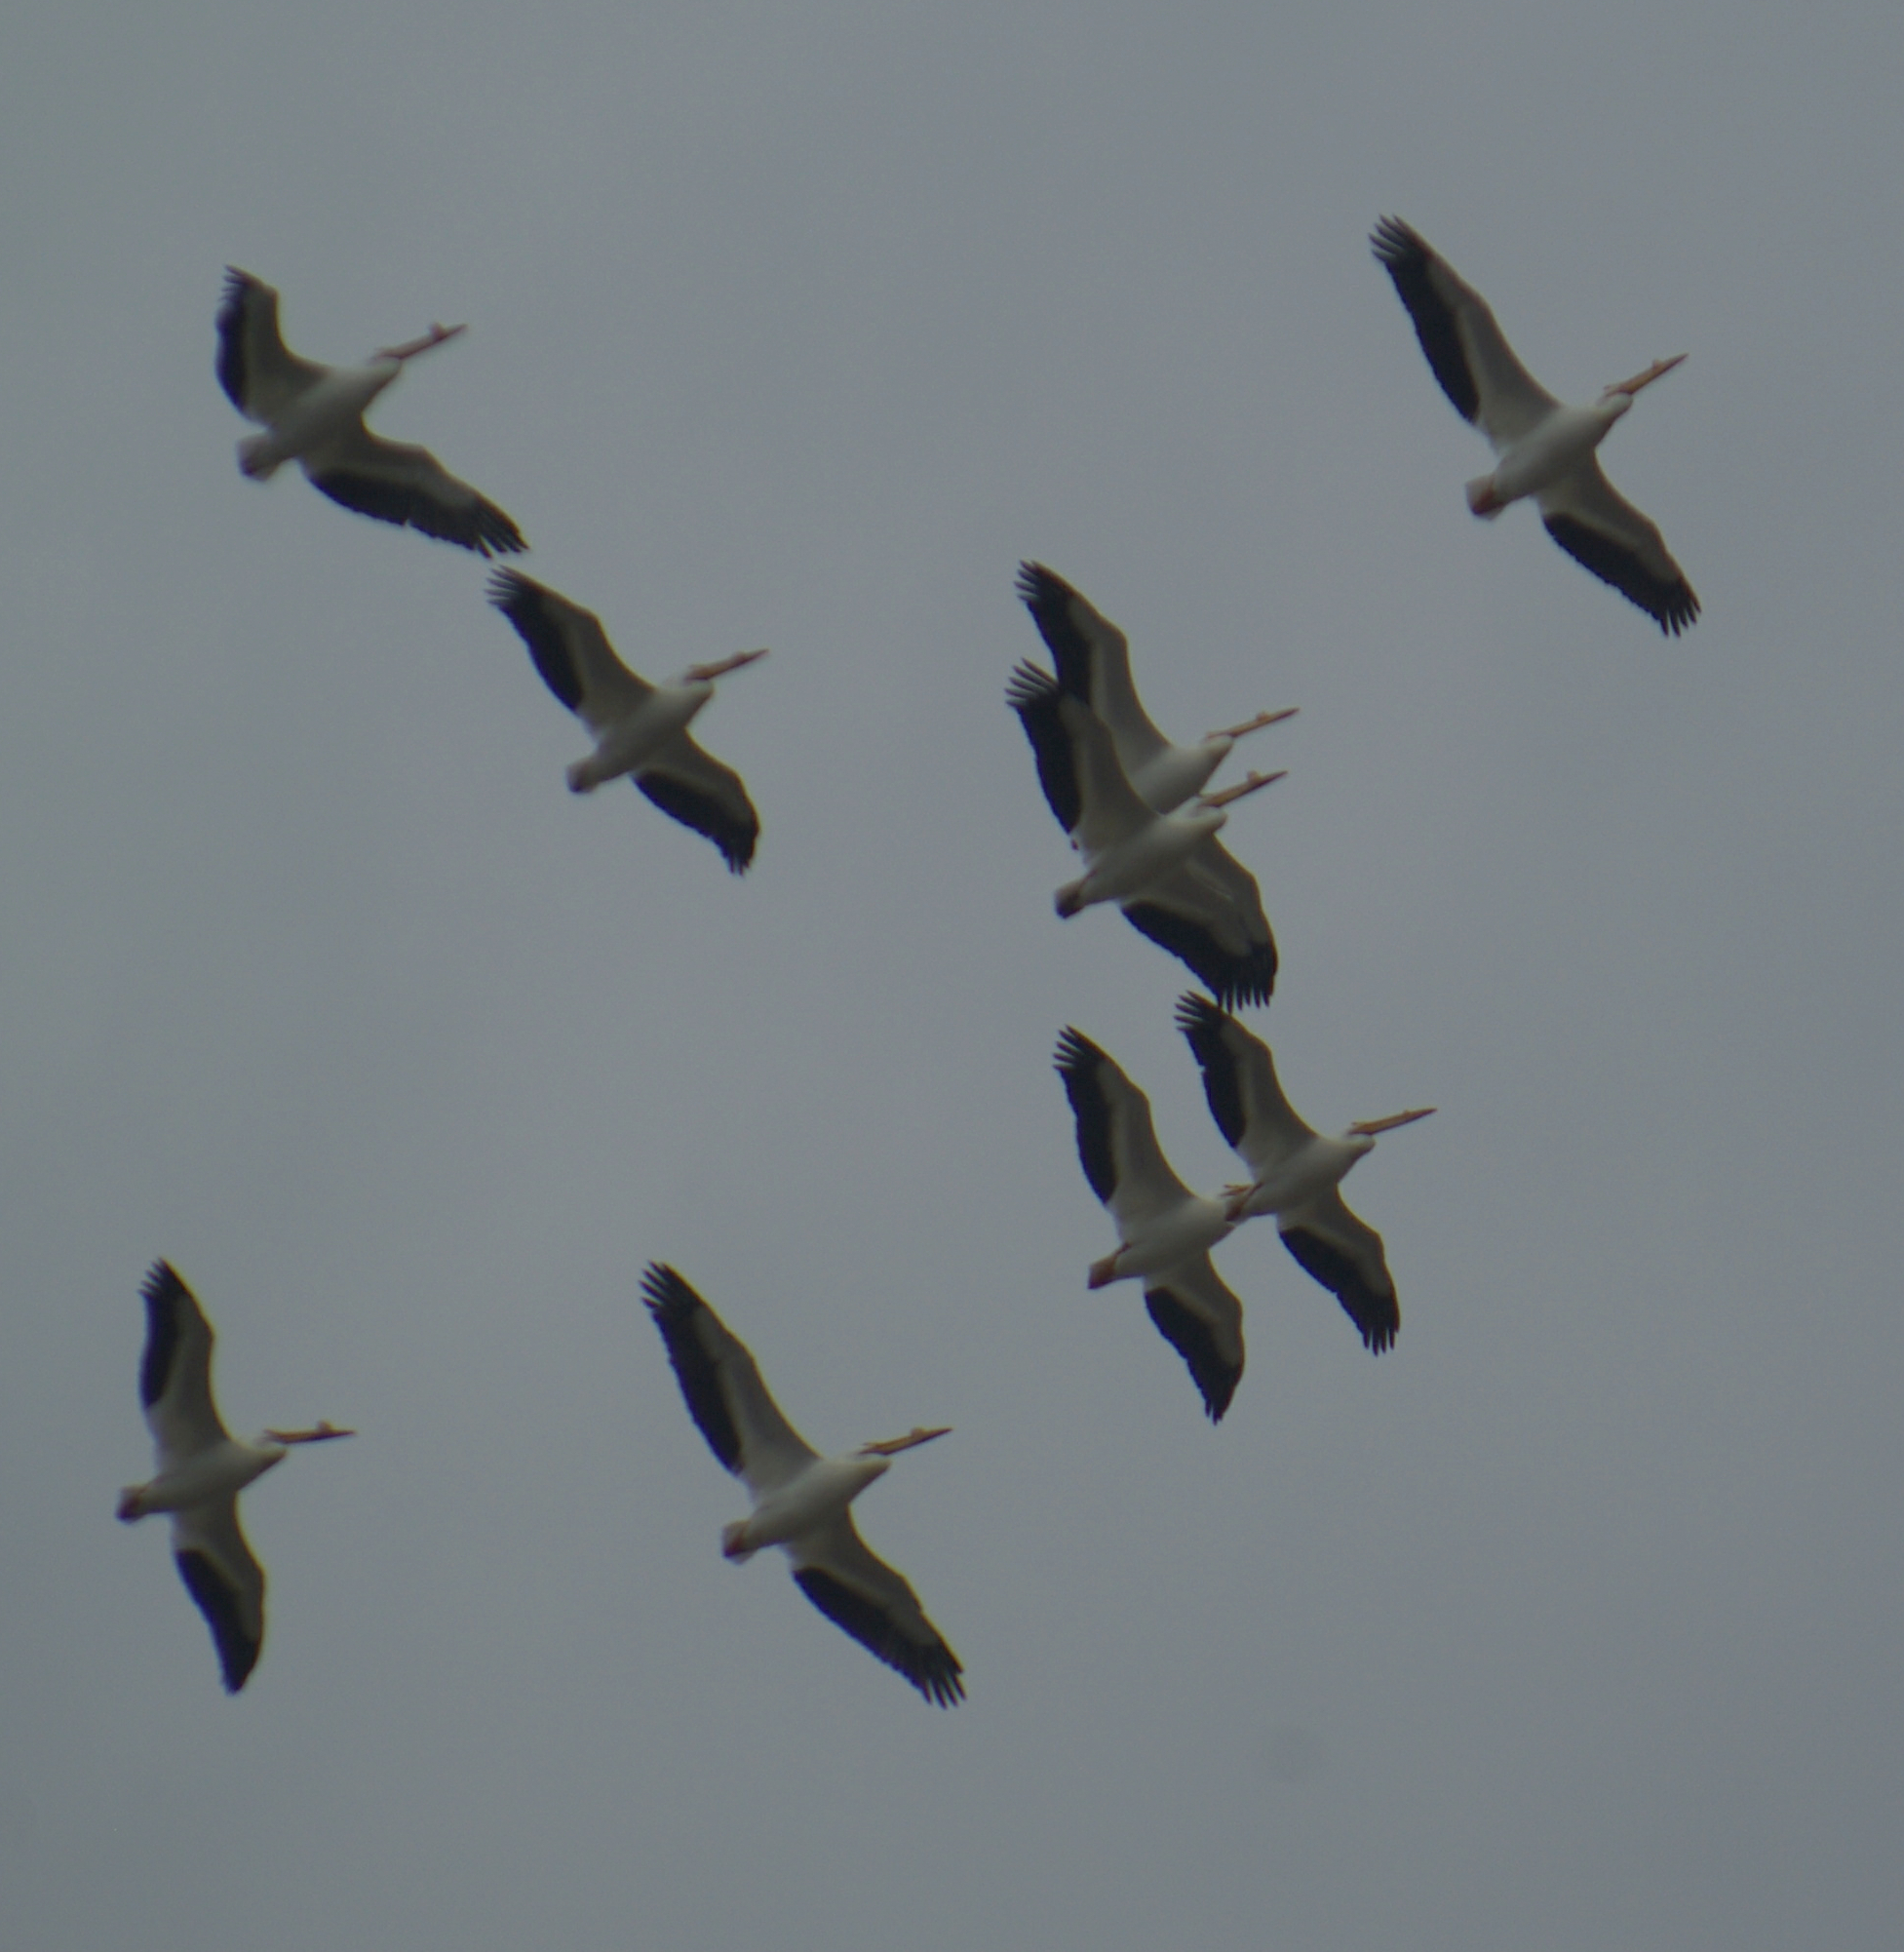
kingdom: Animalia
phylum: Chordata
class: Aves
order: Pelecaniformes
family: Pelecanidae
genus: Pelecanus
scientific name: Pelecanus erythrorhynchos
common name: American white pelican
